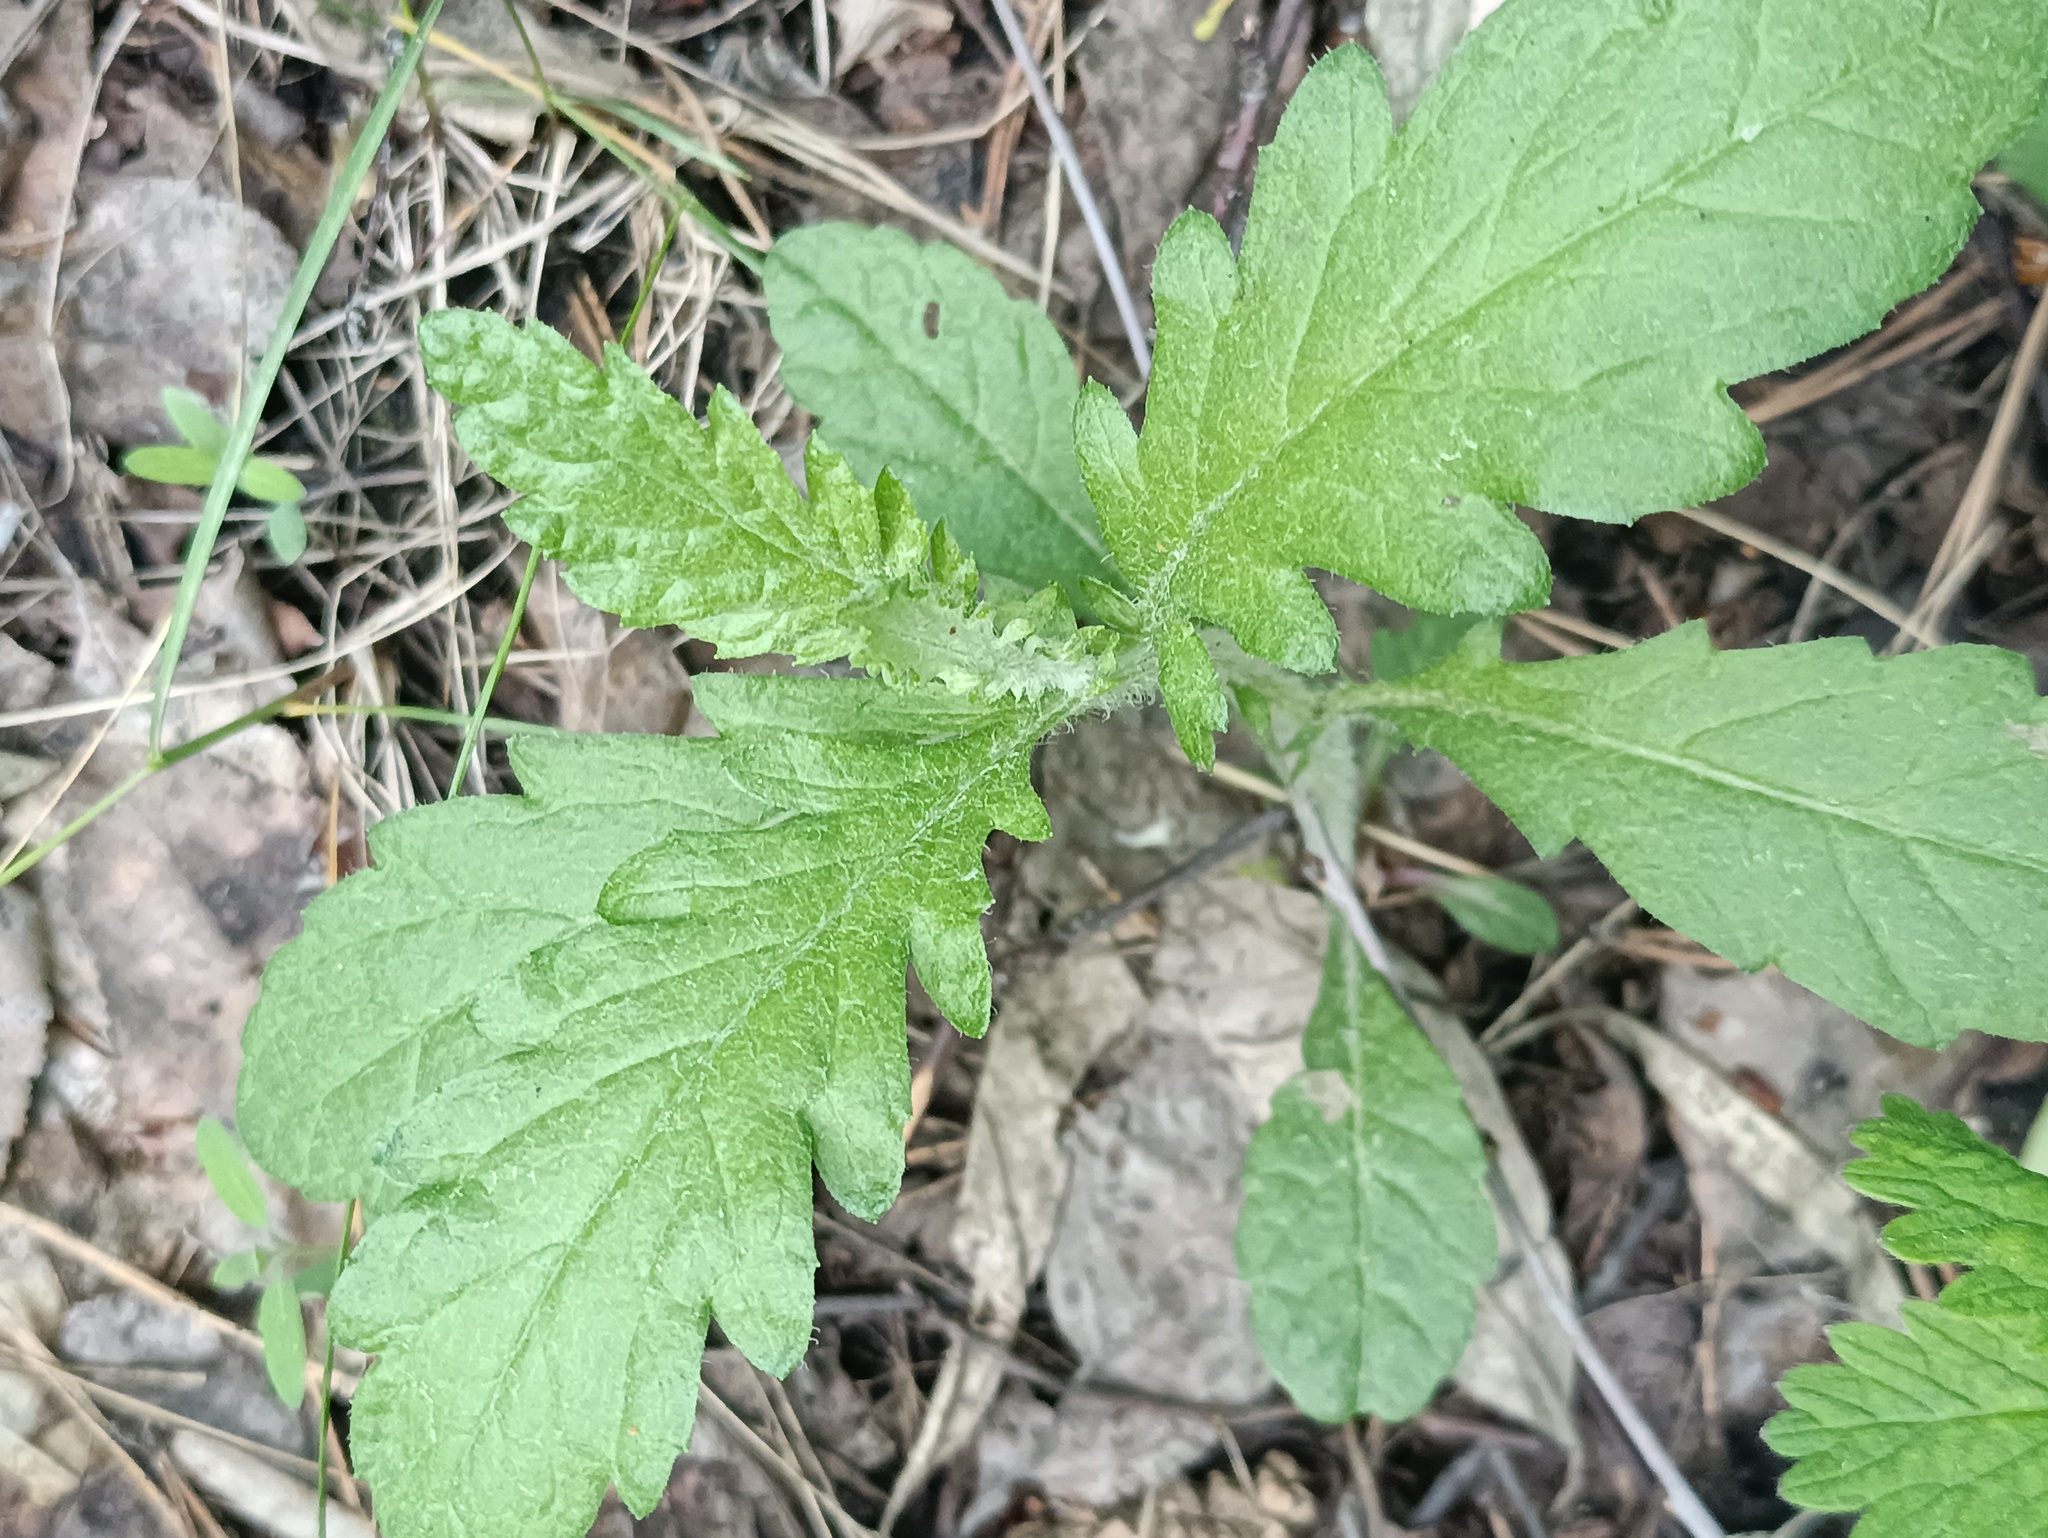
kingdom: Plantae
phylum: Tracheophyta
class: Magnoliopsida
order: Asterales
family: Asteraceae
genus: Jacobaea
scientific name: Jacobaea erucifolia
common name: Hoary ragwort
